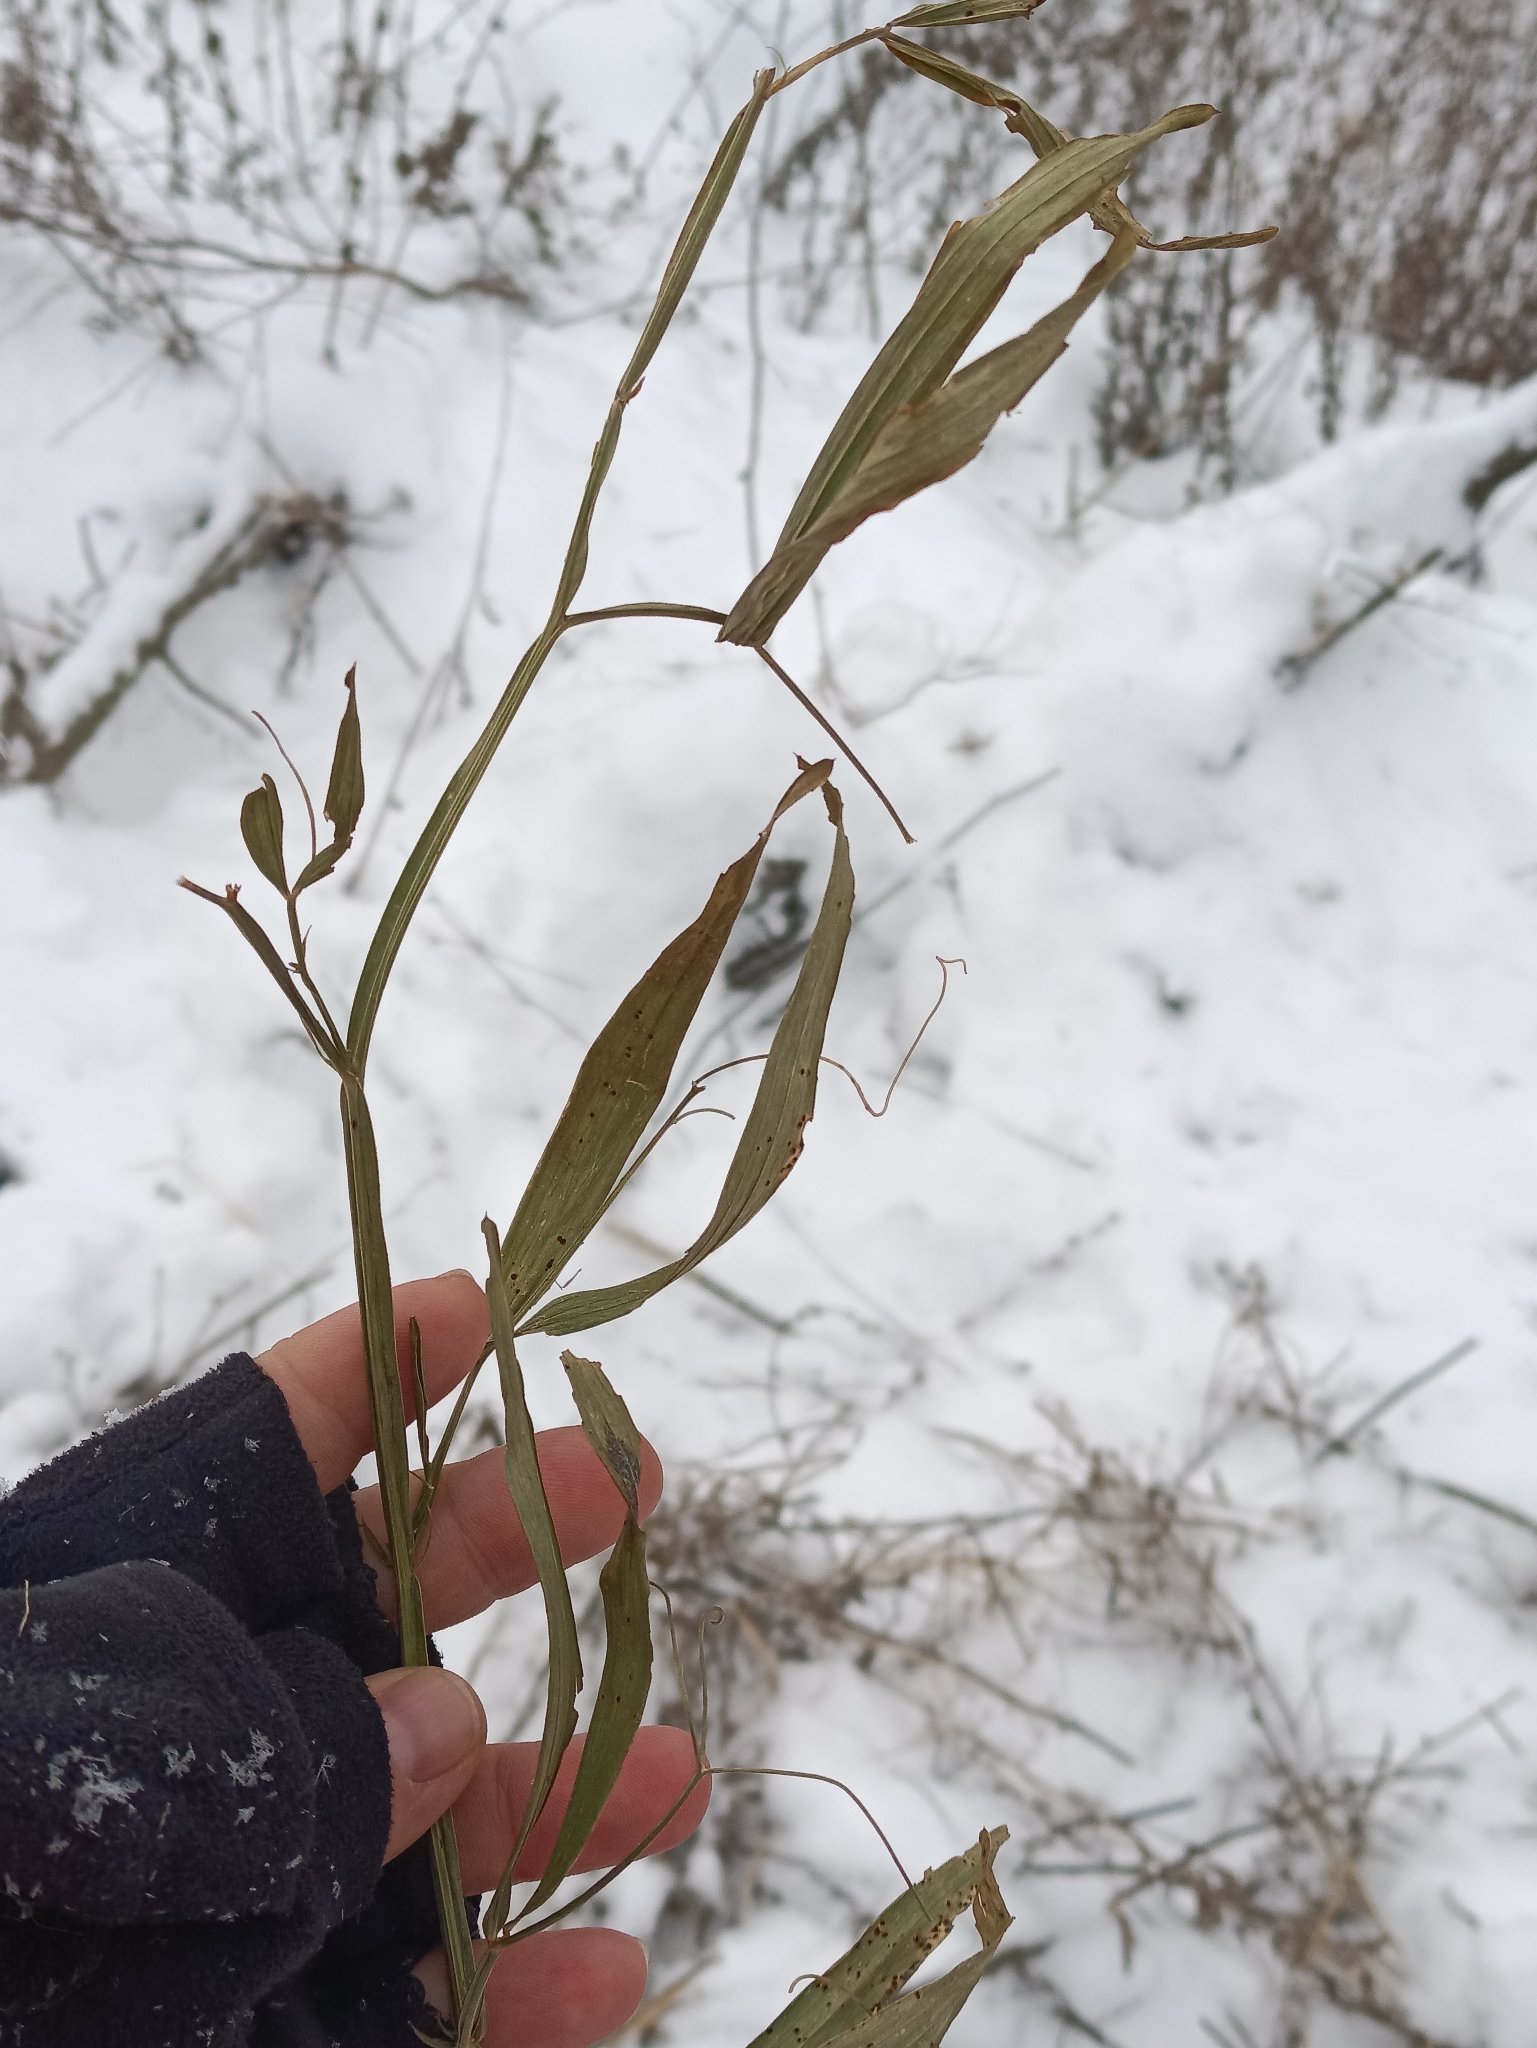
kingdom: Plantae
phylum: Tracheophyta
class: Magnoliopsida
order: Fabales
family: Fabaceae
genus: Lathyrus
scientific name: Lathyrus sylvestris
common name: Flat pea
